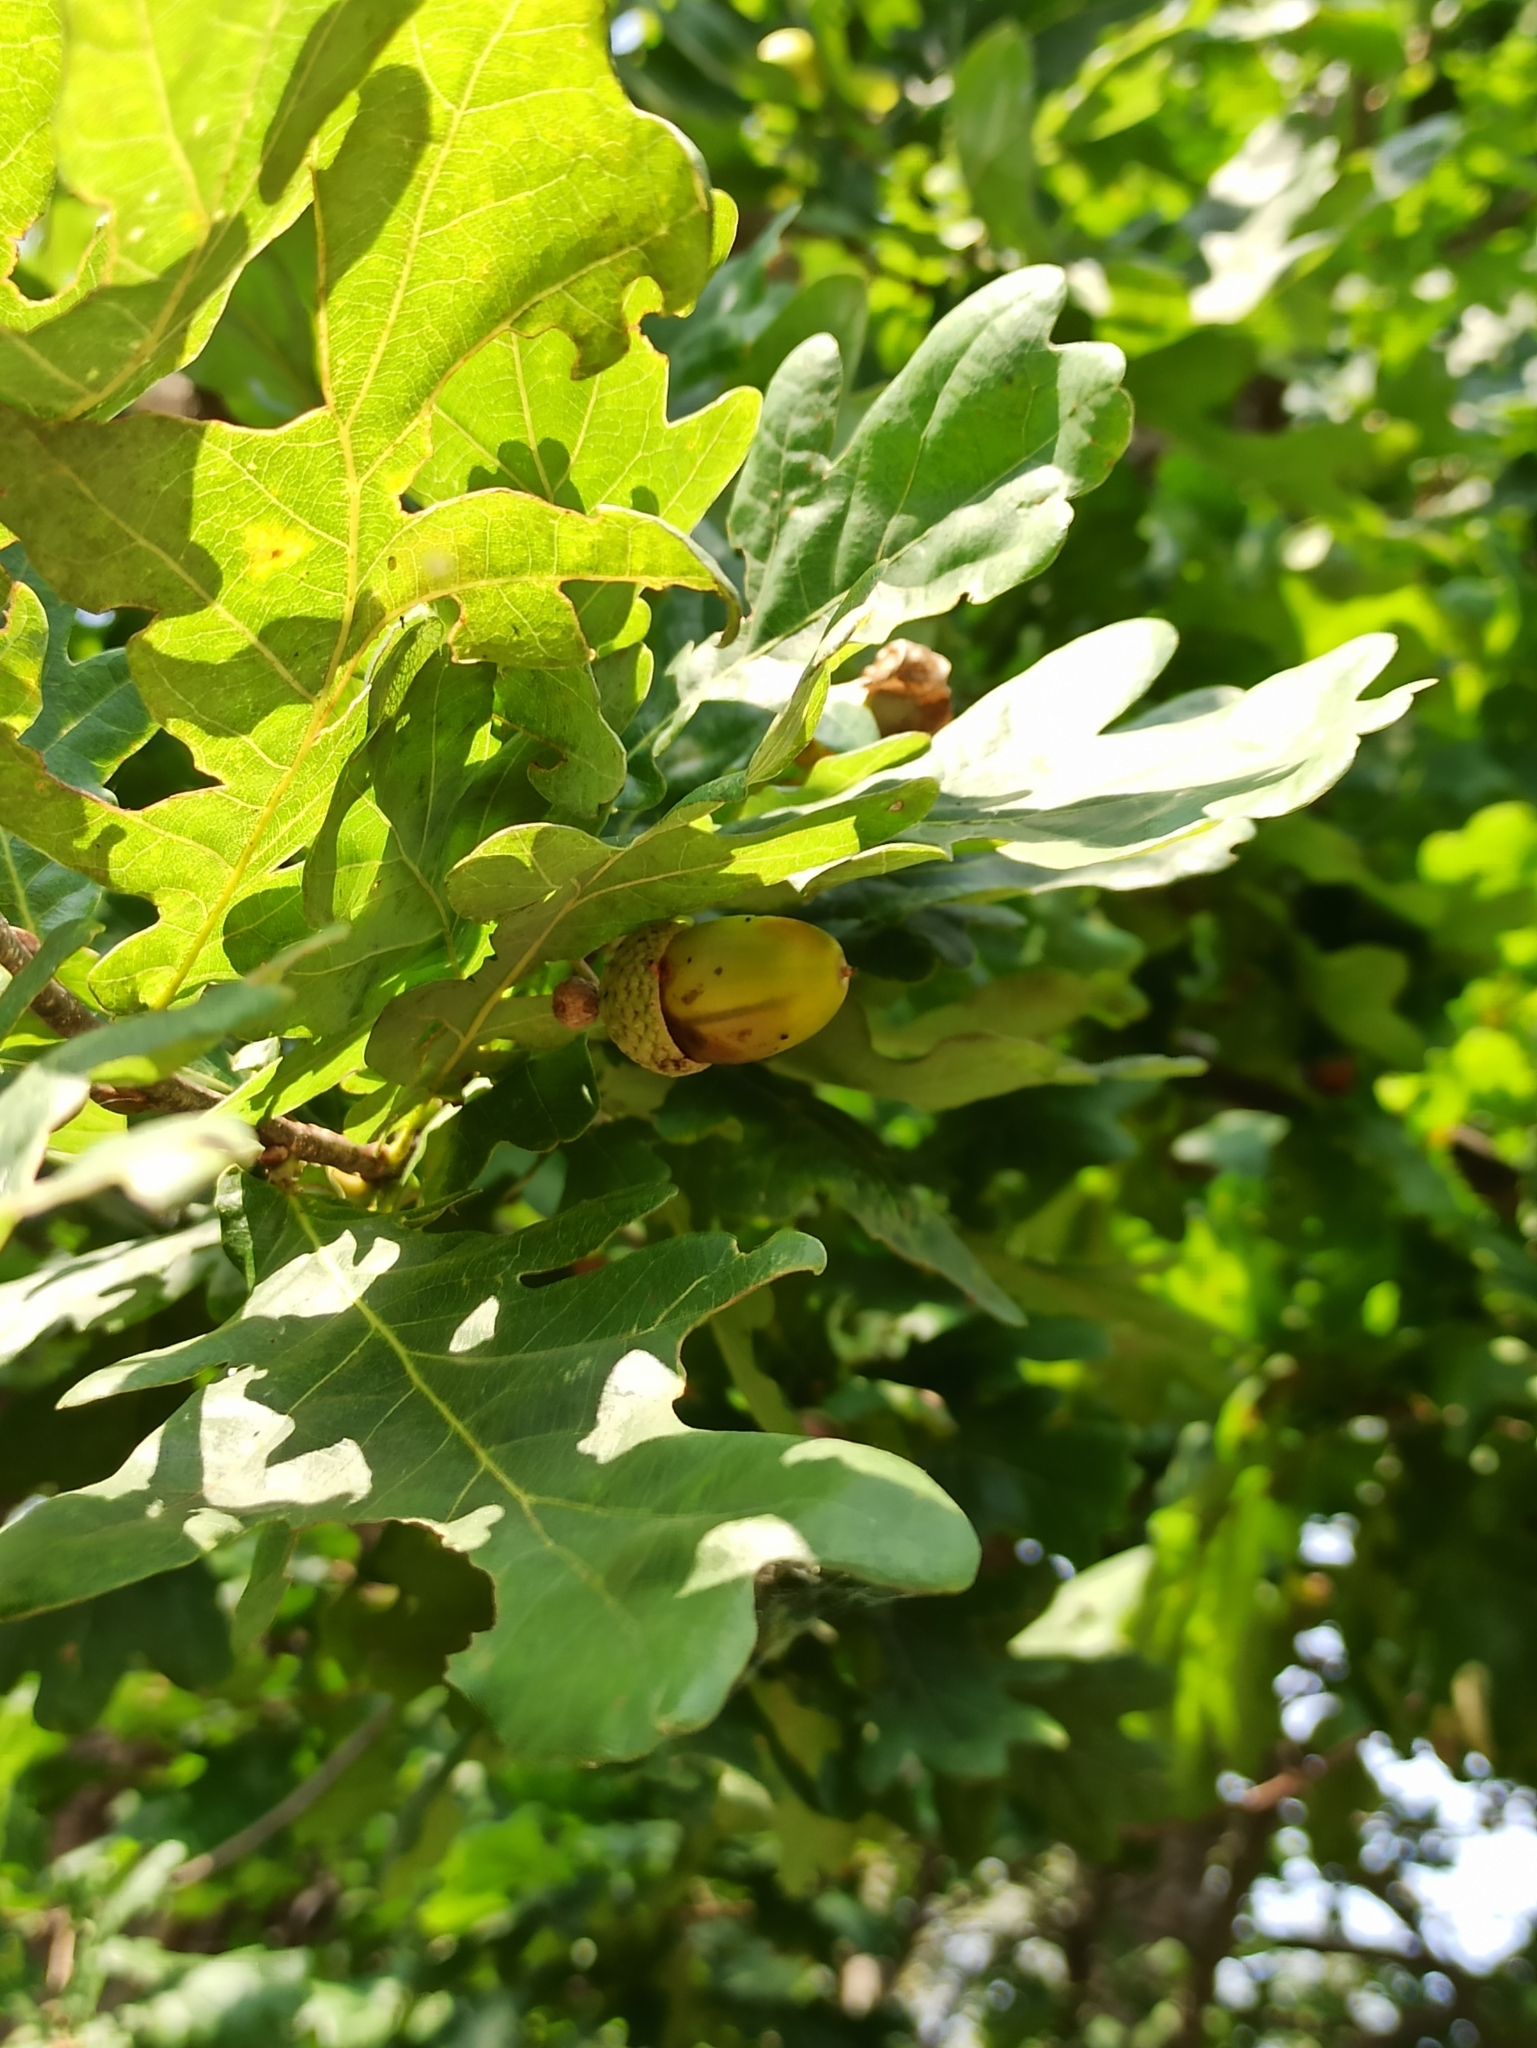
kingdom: Plantae
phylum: Tracheophyta
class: Magnoliopsida
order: Fagales
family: Fagaceae
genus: Quercus
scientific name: Quercus robur
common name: Pedunculate oak
